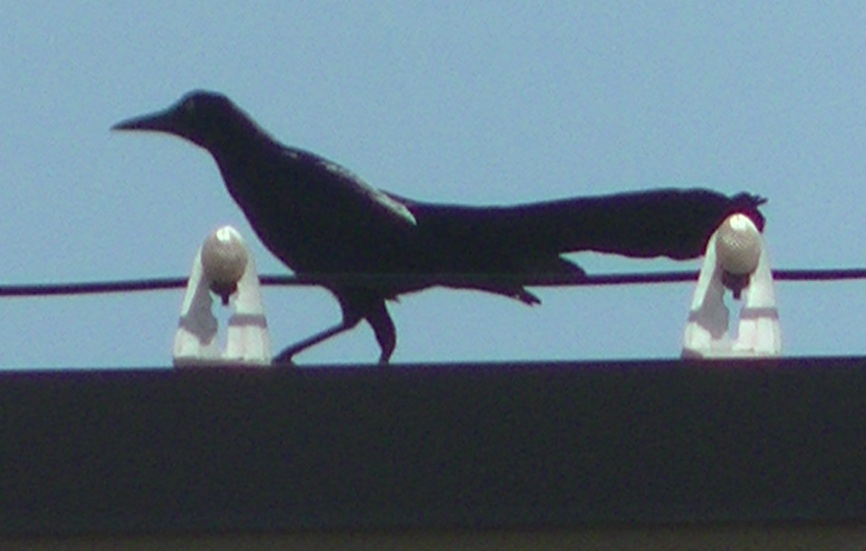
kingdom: Animalia
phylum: Chordata
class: Aves
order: Passeriformes
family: Icteridae
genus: Quiscalus
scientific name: Quiscalus mexicanus
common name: Great-tailed grackle
